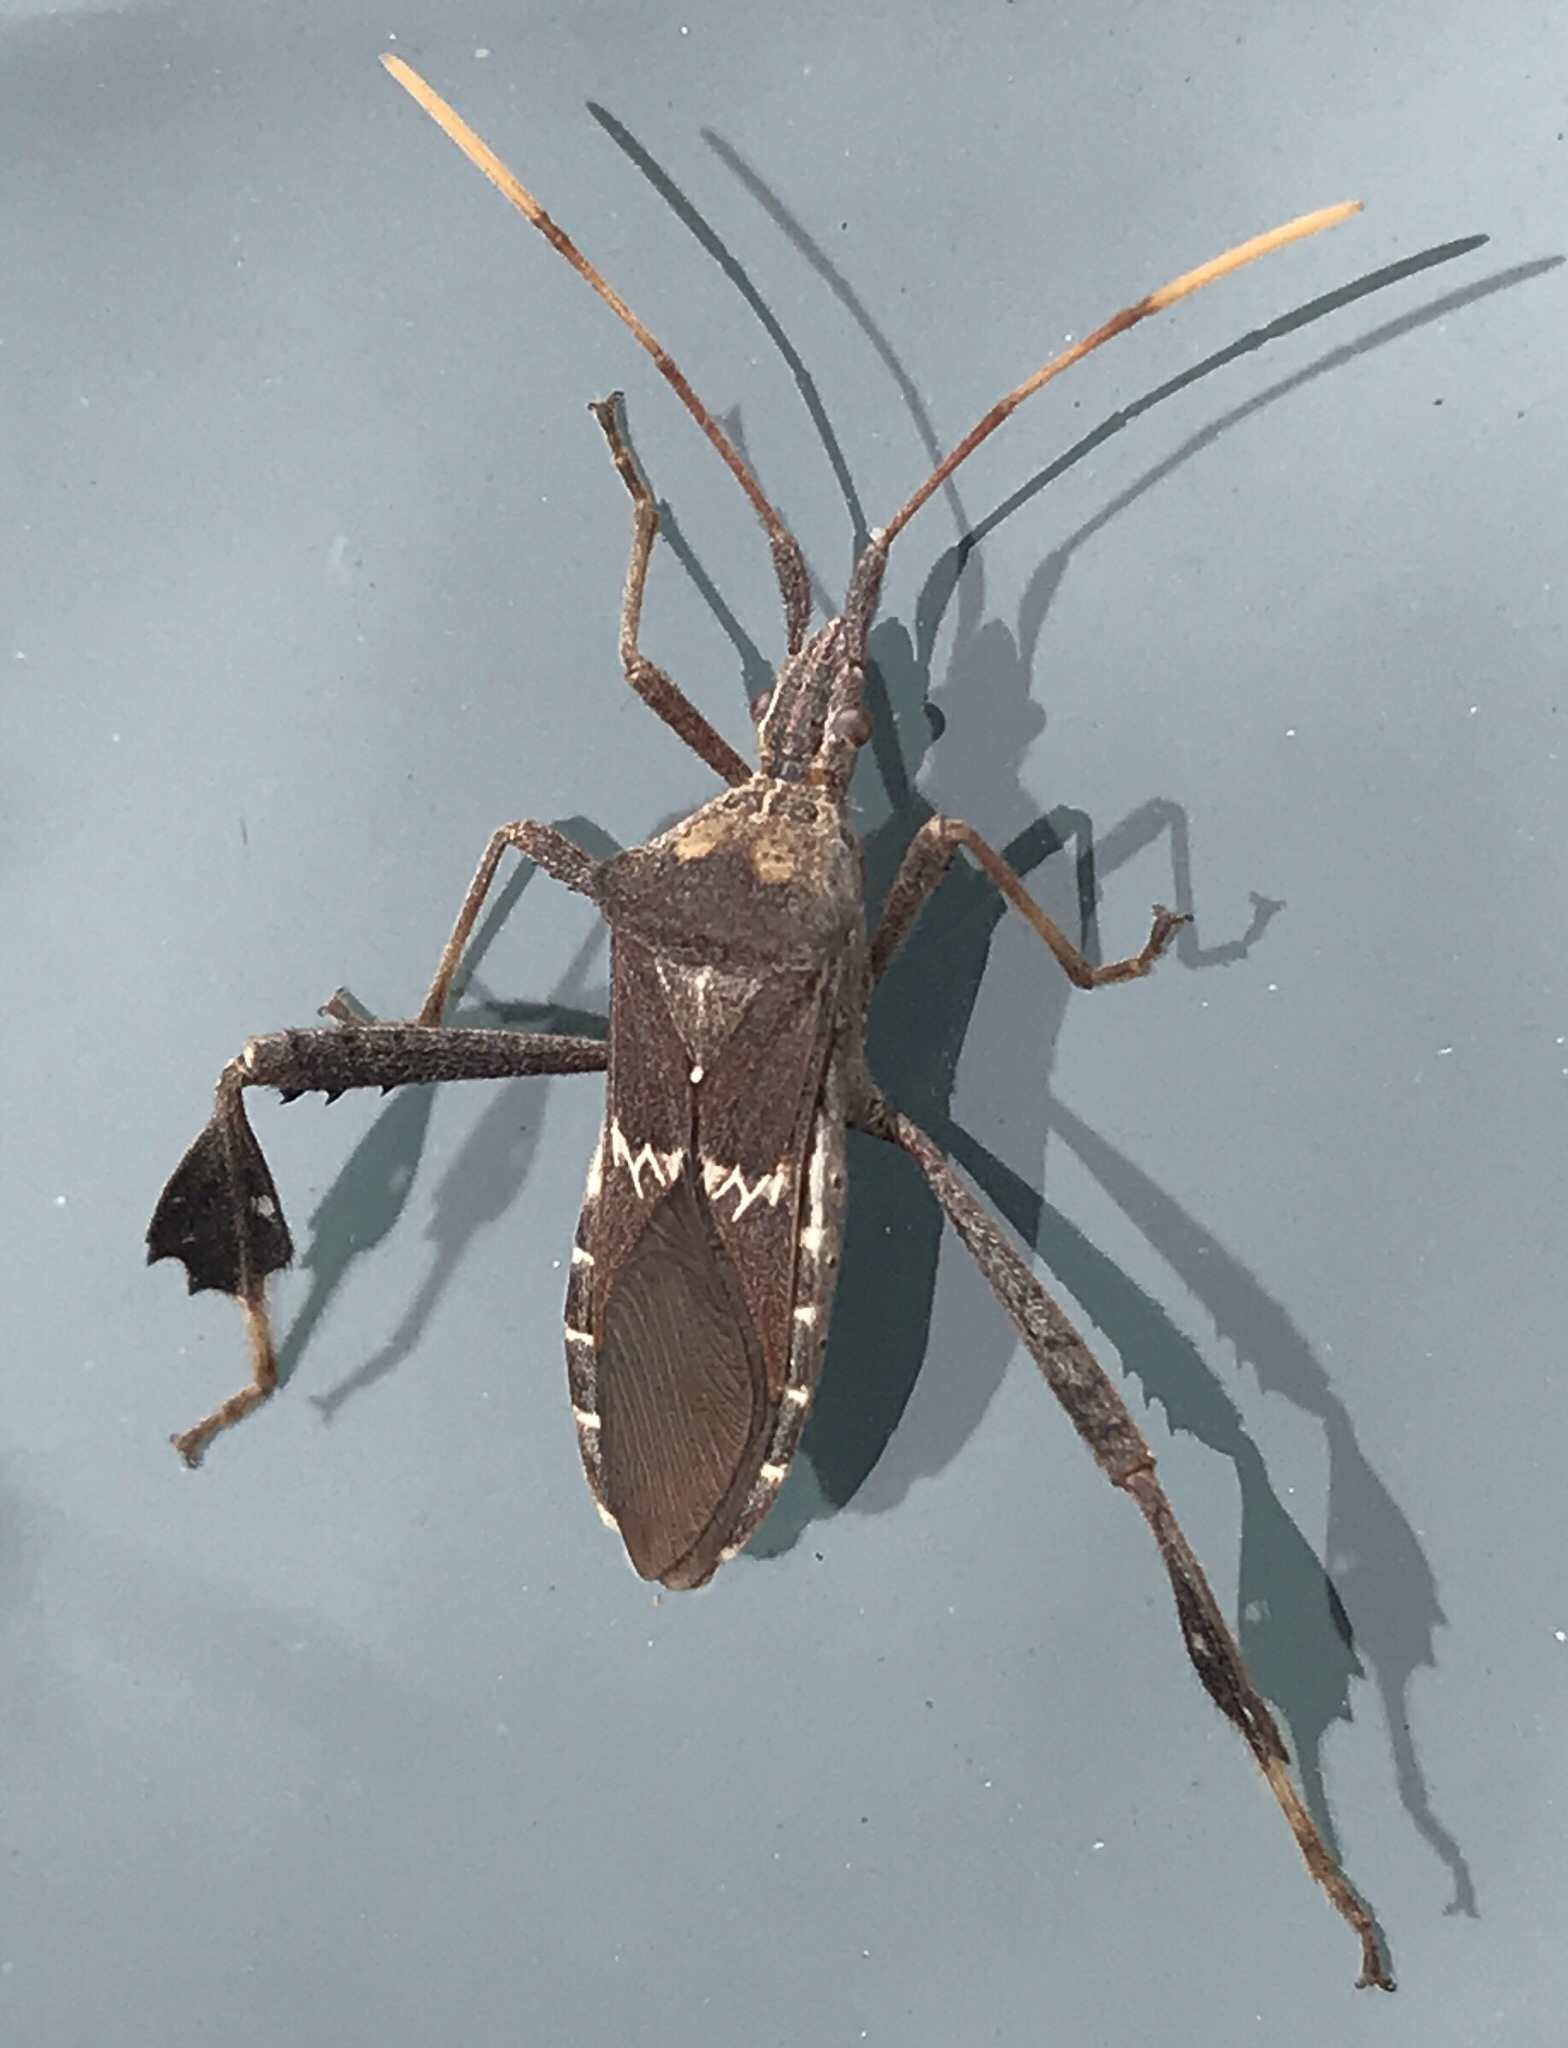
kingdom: Animalia
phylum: Arthropoda
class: Insecta
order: Hemiptera
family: Coreidae
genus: Leptoglossus
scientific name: Leptoglossus zonatus
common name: Large-legged bug
